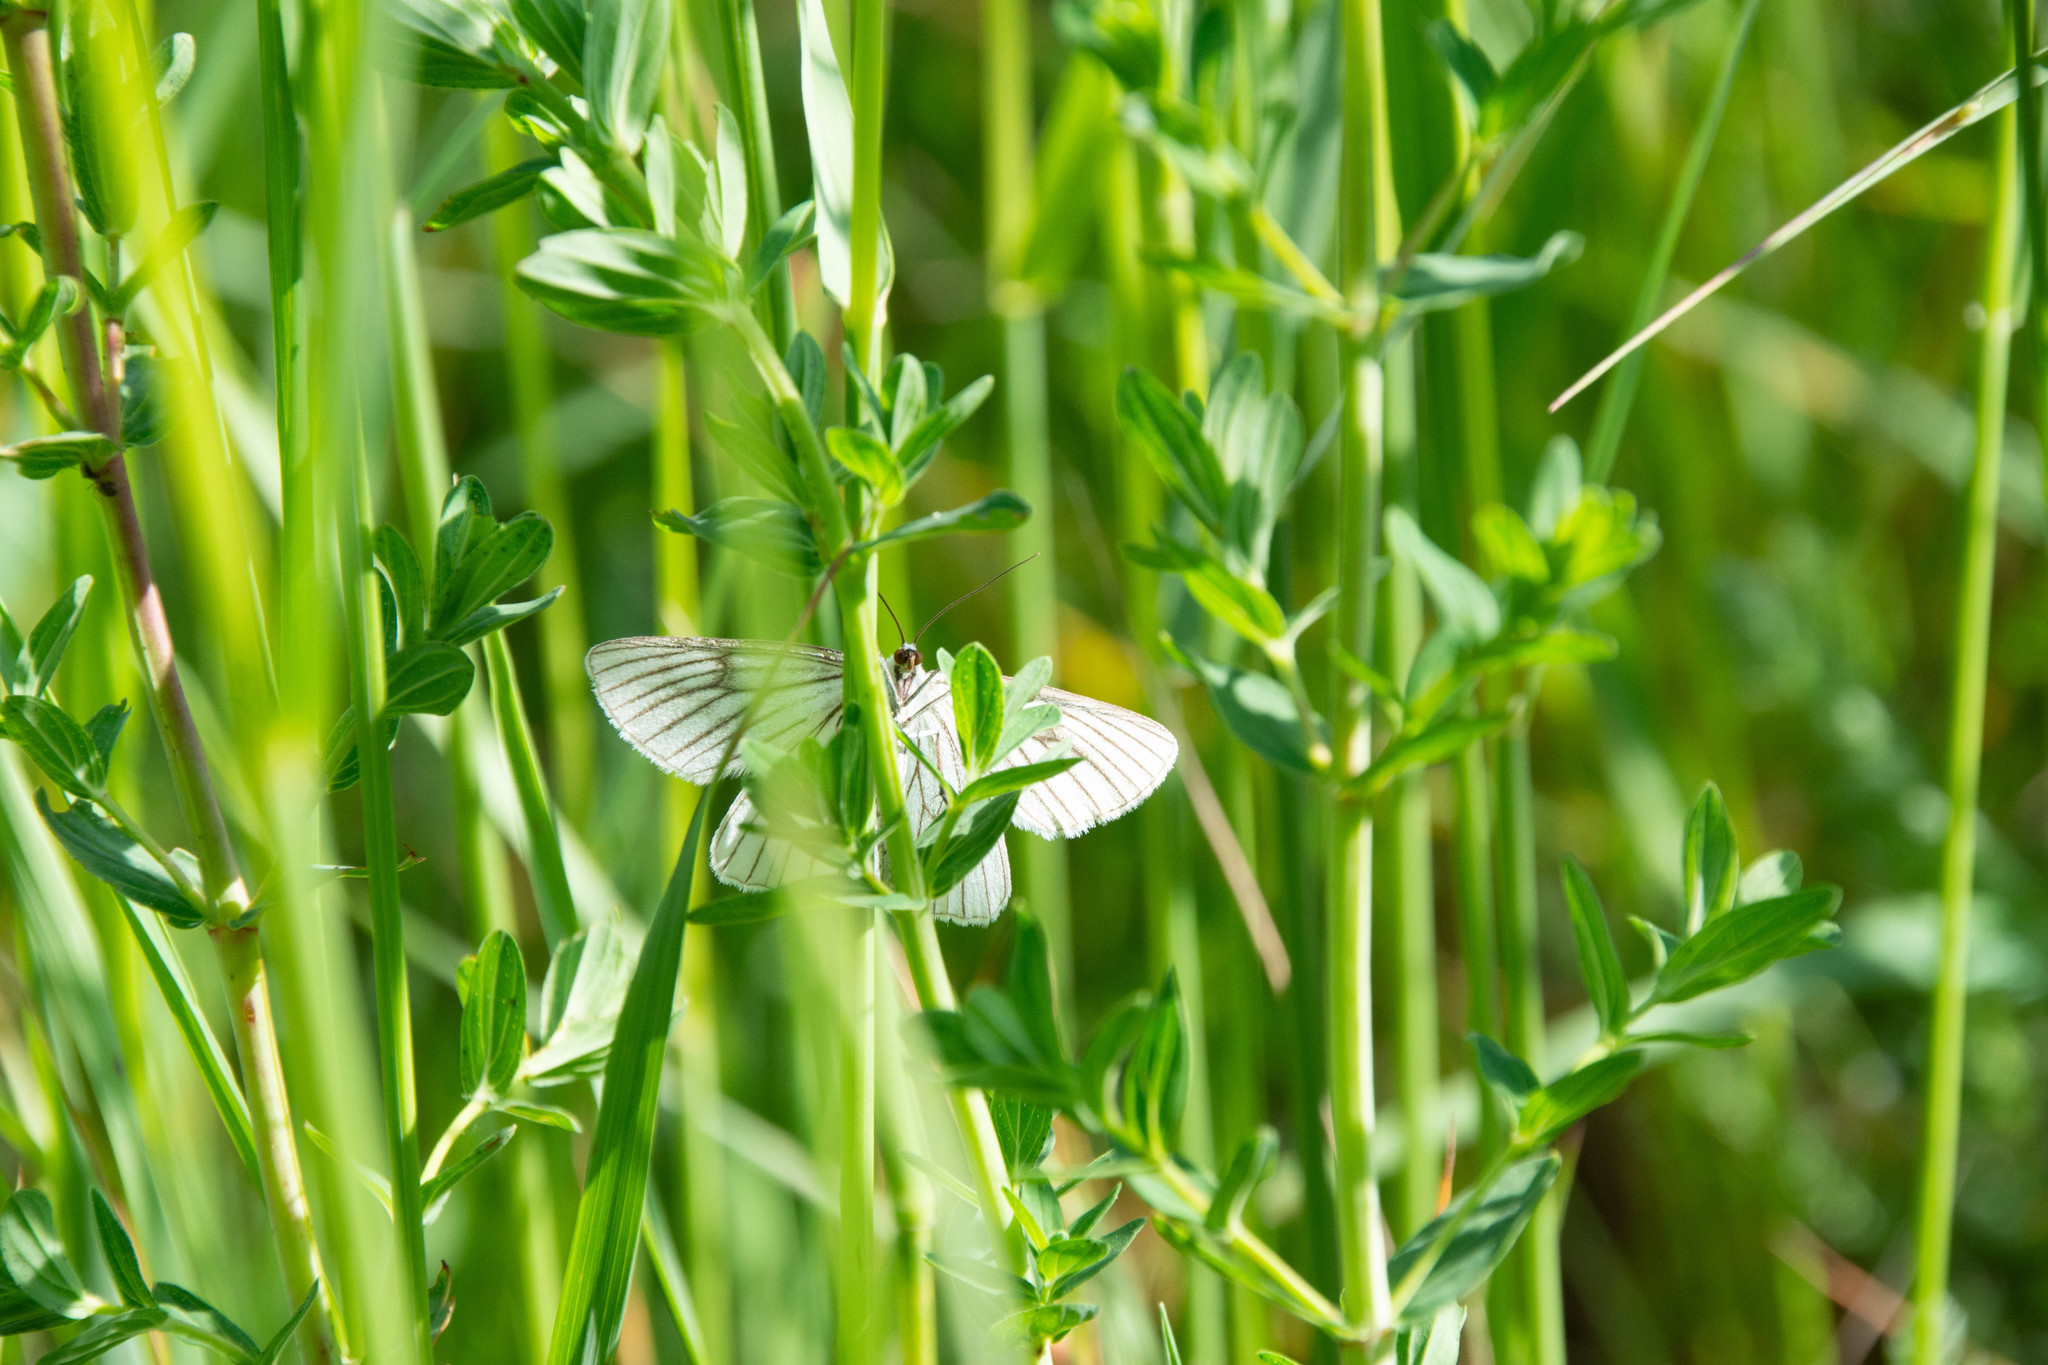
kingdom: Animalia
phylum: Arthropoda
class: Insecta
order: Lepidoptera
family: Geometridae
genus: Siona
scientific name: Siona lineata
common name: Black-veined moth
